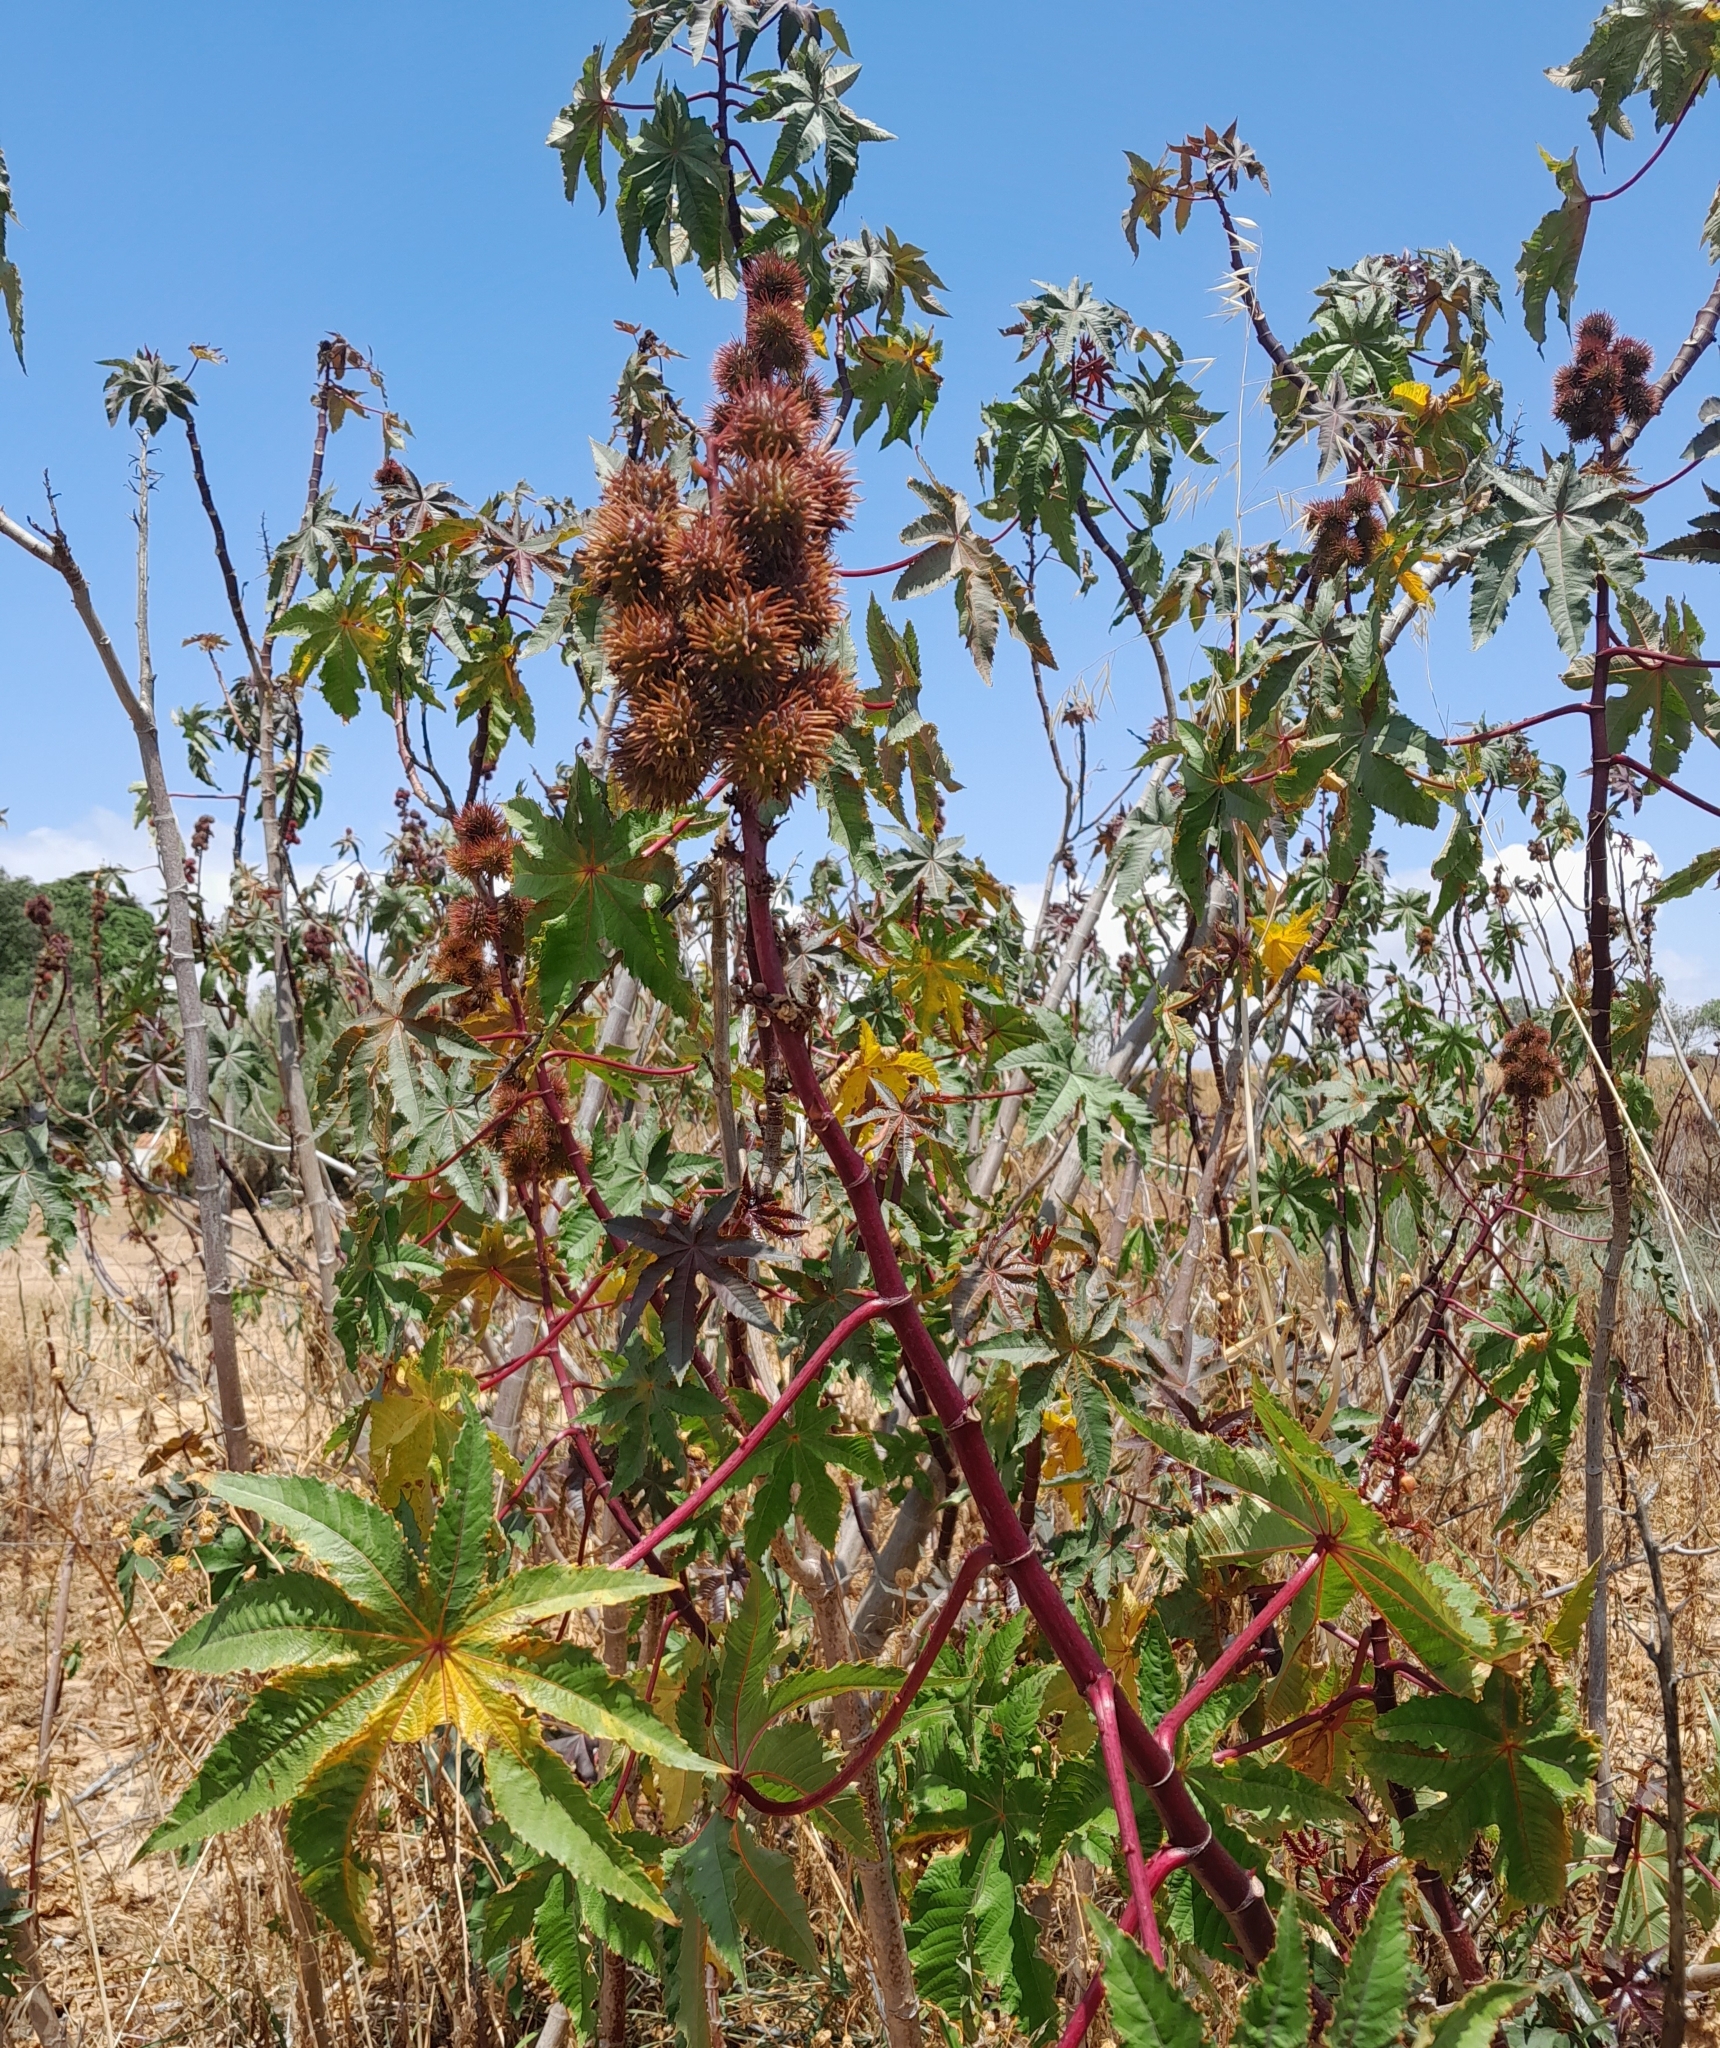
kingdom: Plantae
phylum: Tracheophyta
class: Magnoliopsida
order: Malpighiales
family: Euphorbiaceae
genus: Ricinus
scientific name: Ricinus communis
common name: Castor-oil-plant
